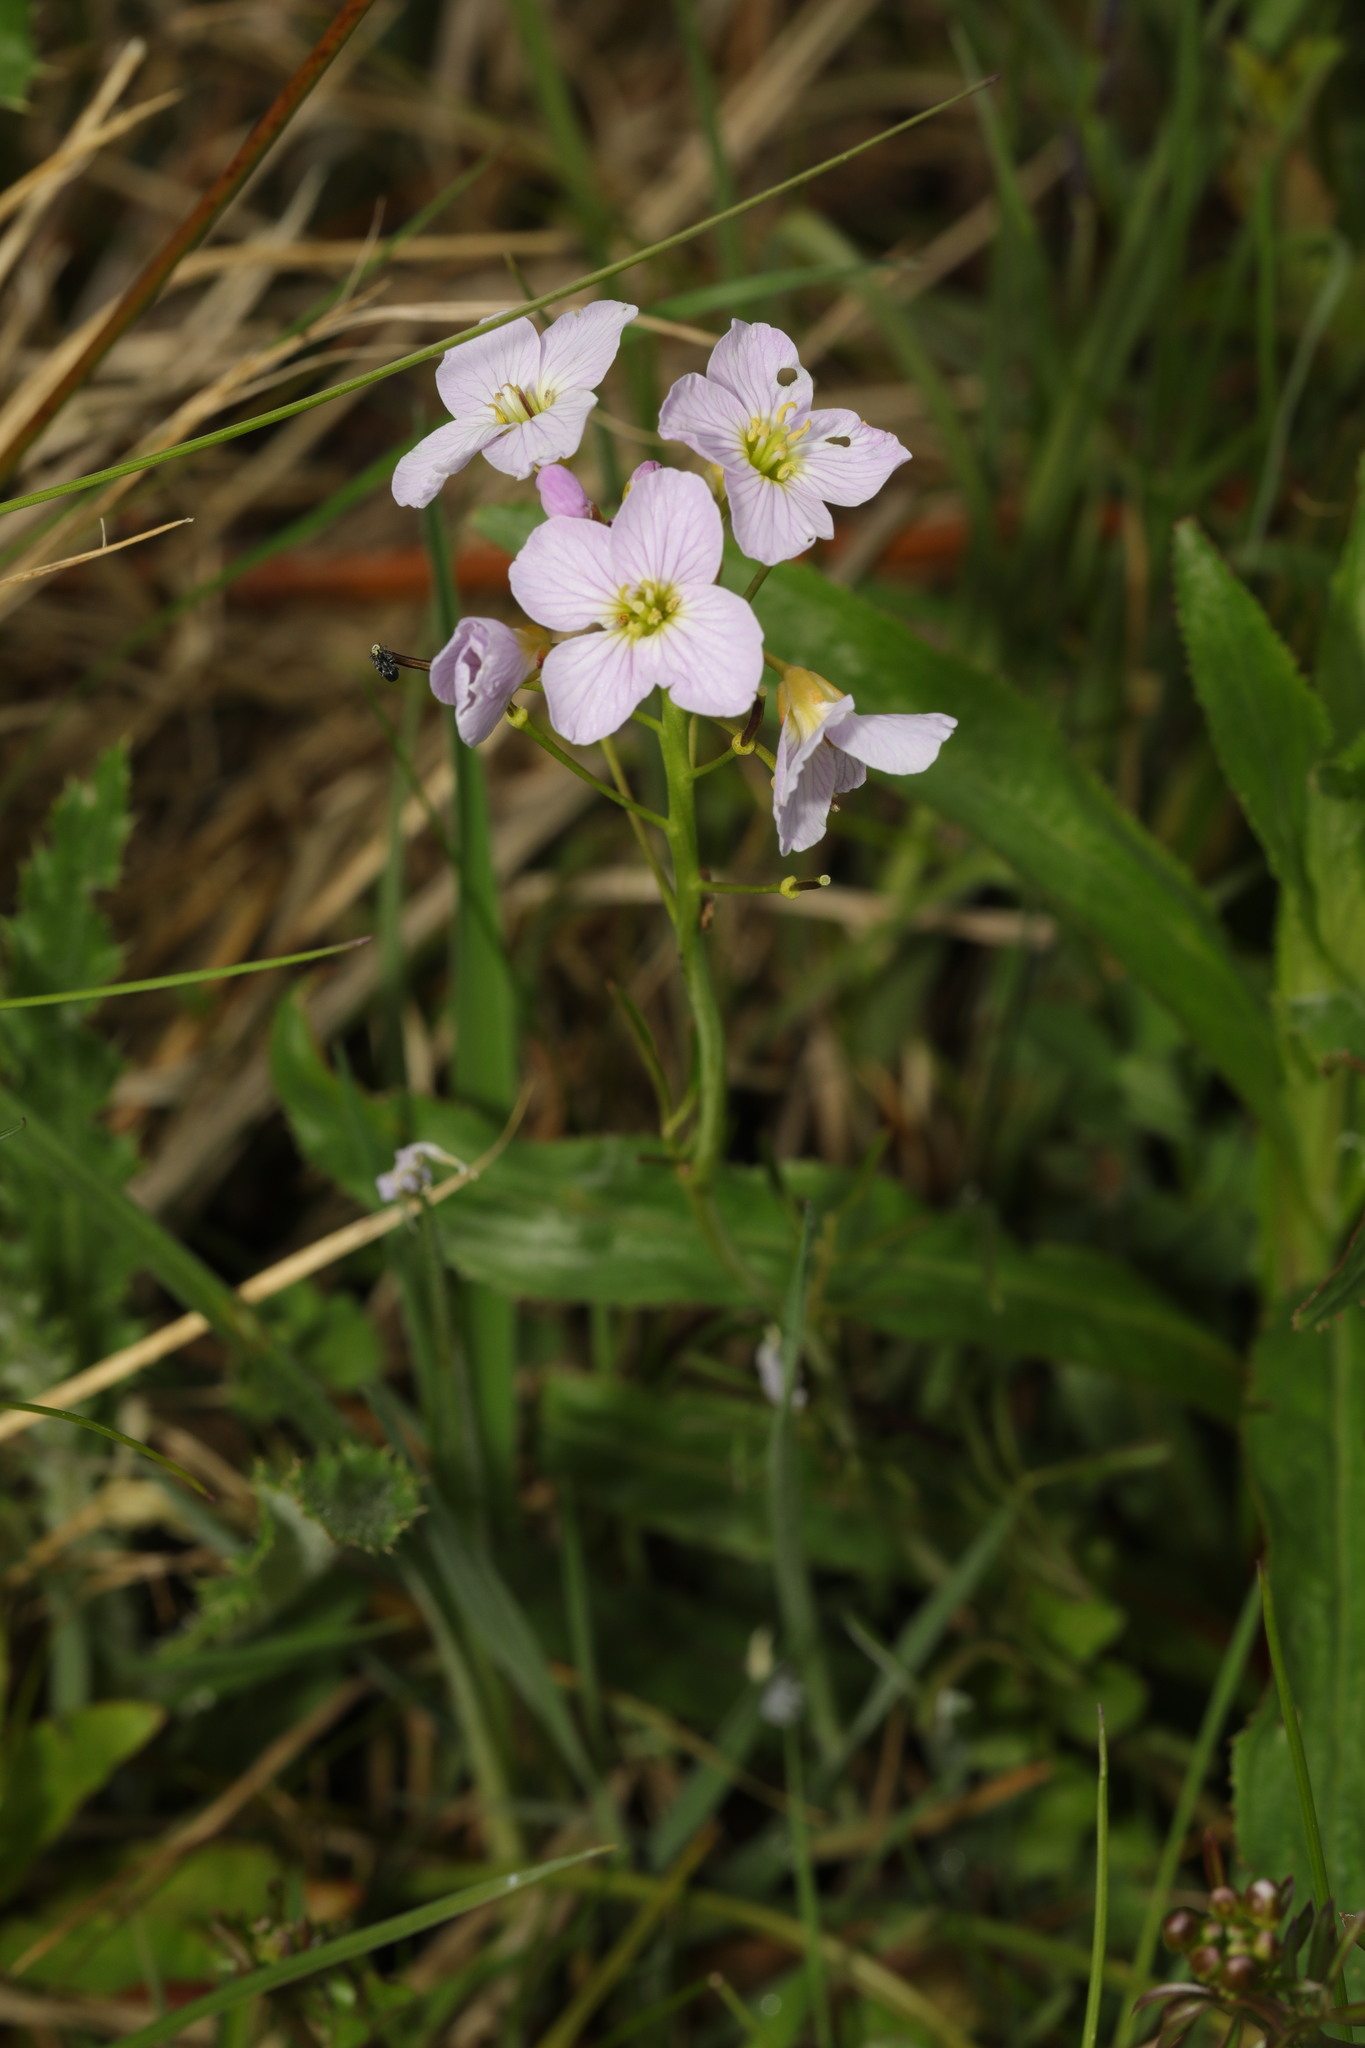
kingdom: Plantae
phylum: Tracheophyta
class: Magnoliopsida
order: Brassicales
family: Brassicaceae
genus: Cardamine
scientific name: Cardamine pratensis
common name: Cuckoo flower
